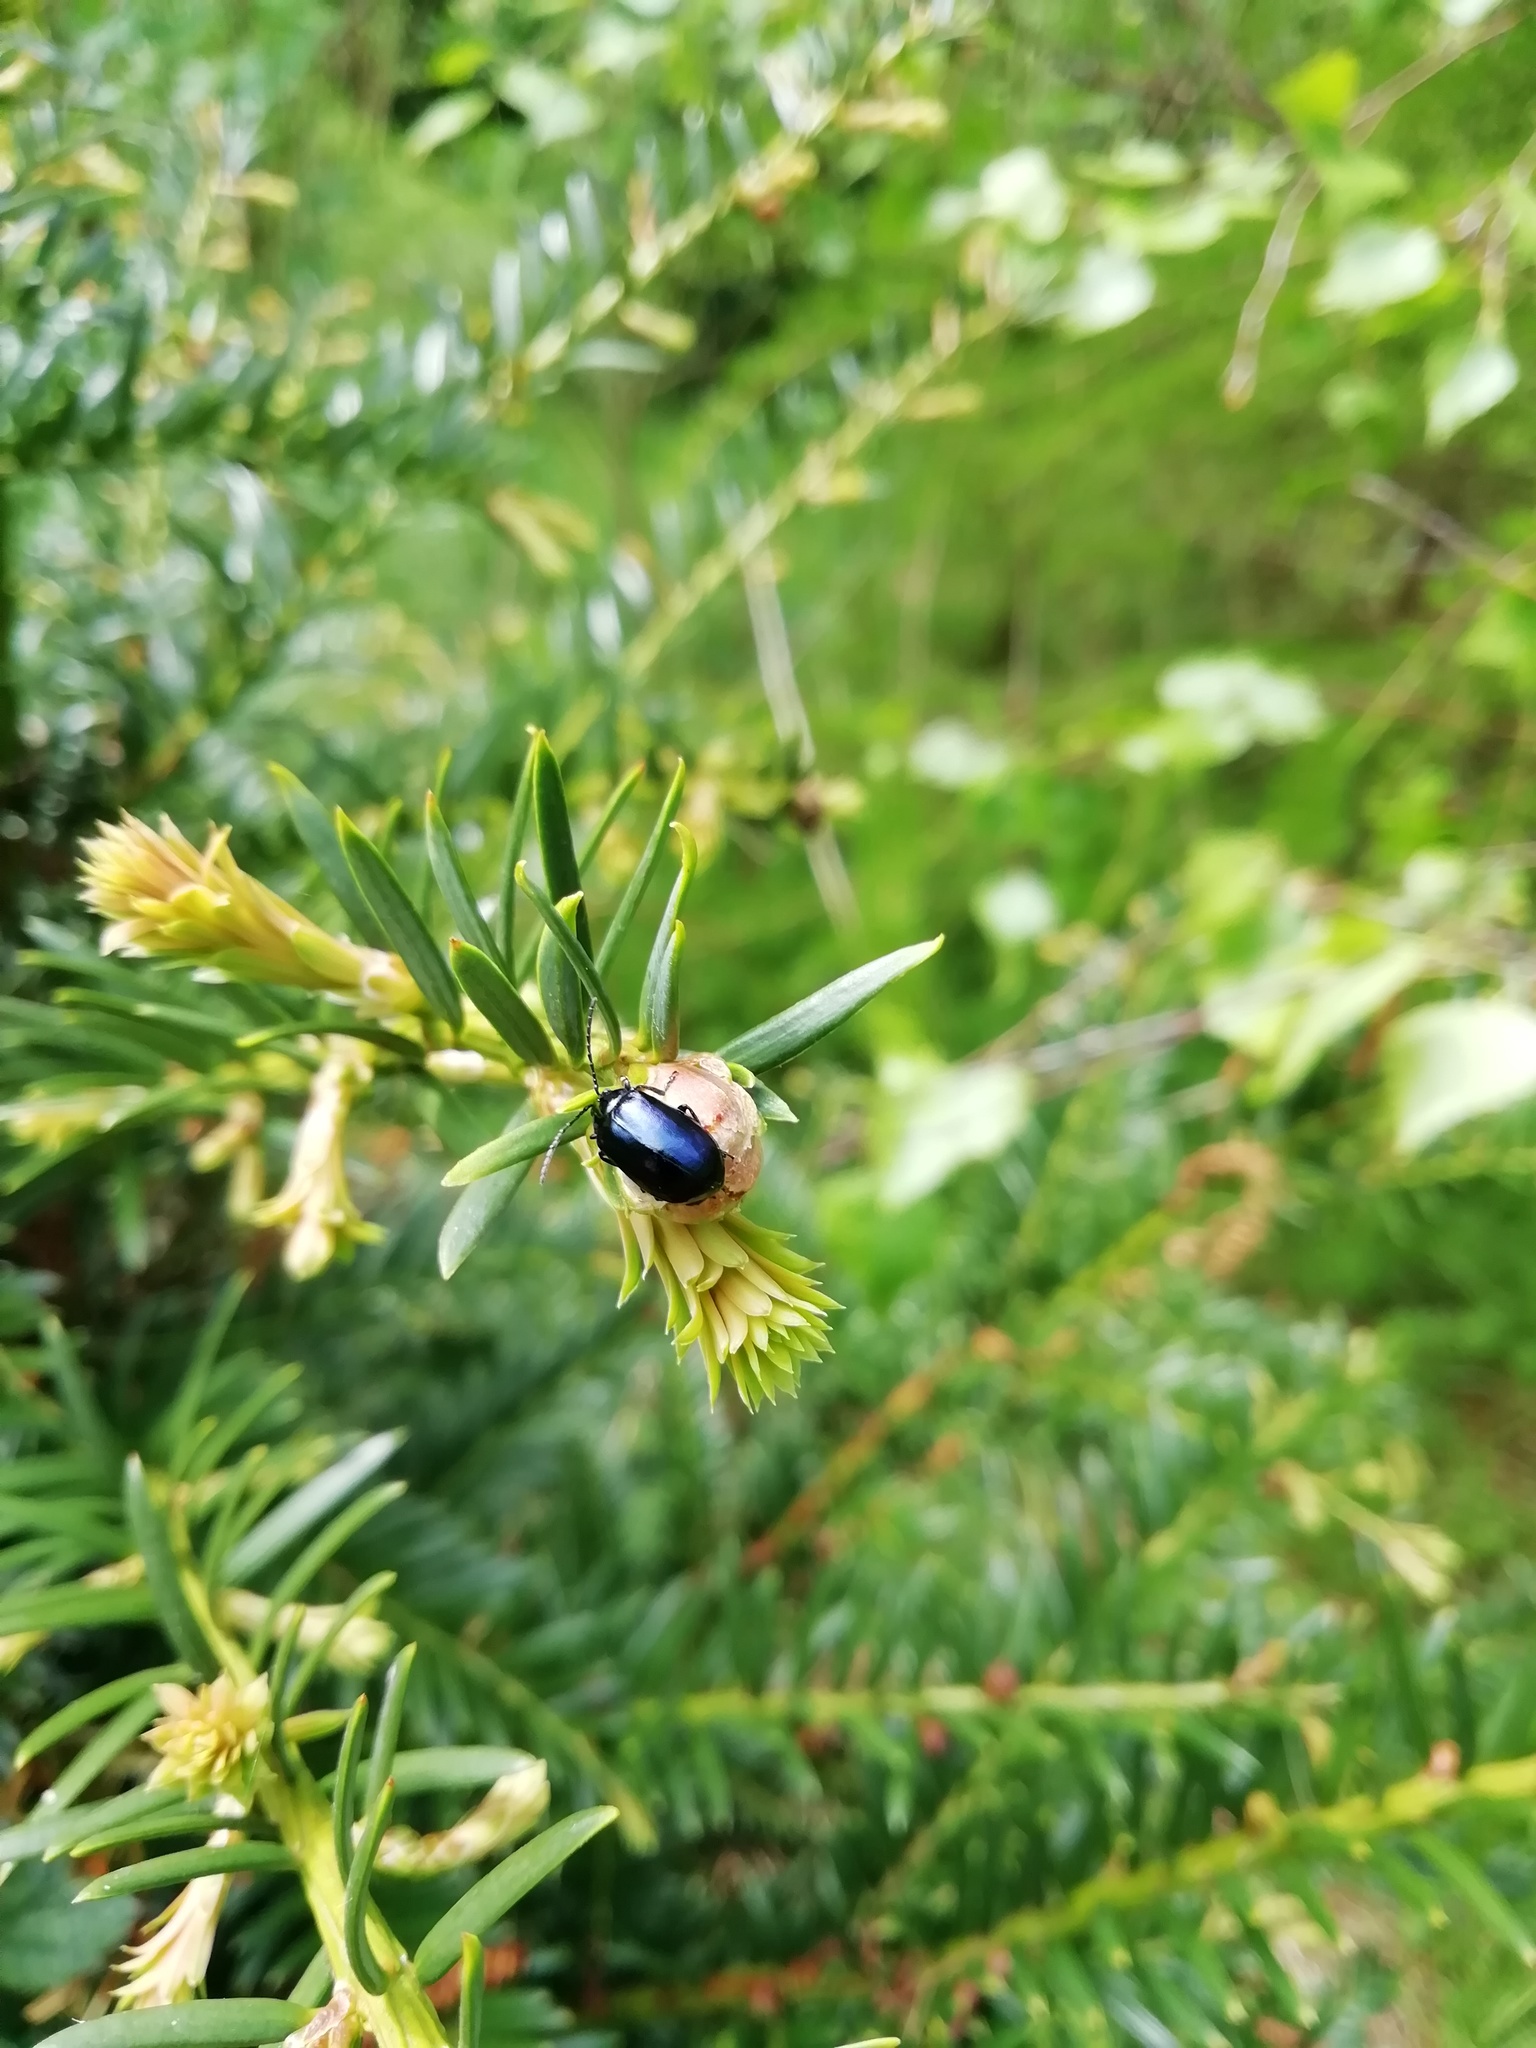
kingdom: Animalia
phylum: Arthropoda
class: Insecta
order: Coleoptera
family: Chrysomelidae
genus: Agelastica
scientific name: Agelastica alni
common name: Alder leaf beetle
